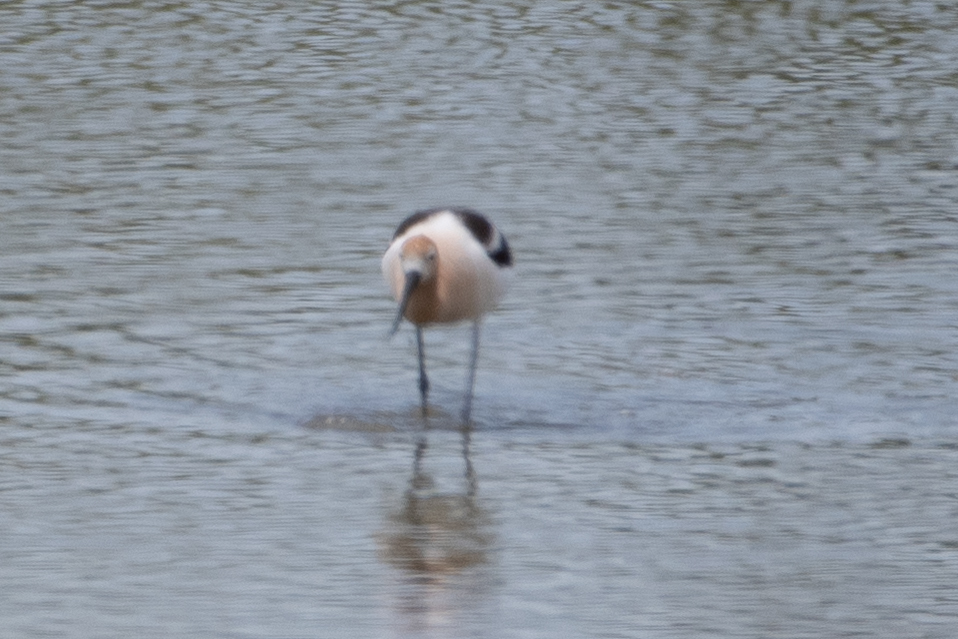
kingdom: Animalia
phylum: Chordata
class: Aves
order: Charadriiformes
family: Recurvirostridae
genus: Recurvirostra
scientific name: Recurvirostra americana
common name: American avocet
